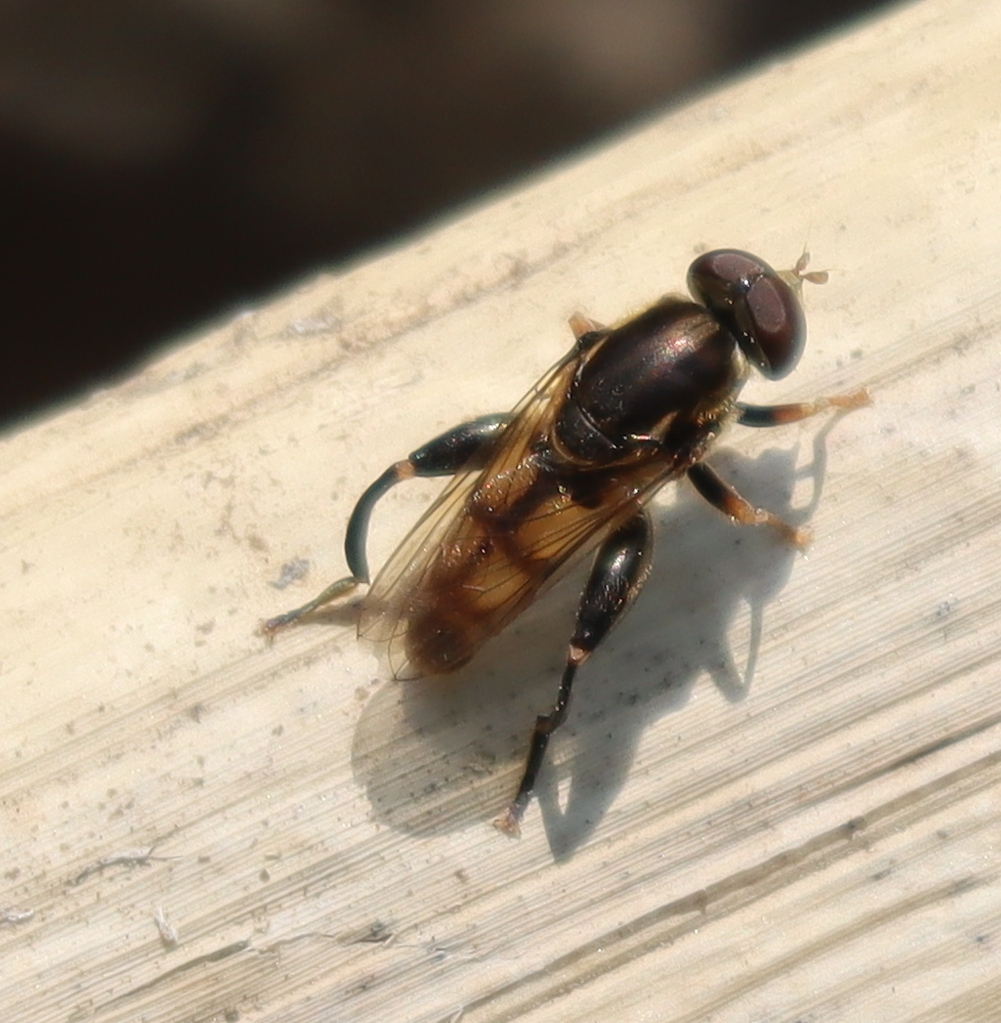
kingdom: Animalia
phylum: Arthropoda
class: Insecta
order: Diptera
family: Syrphidae
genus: Tropidia
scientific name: Tropidia quadrata
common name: Common thick-legged fly
